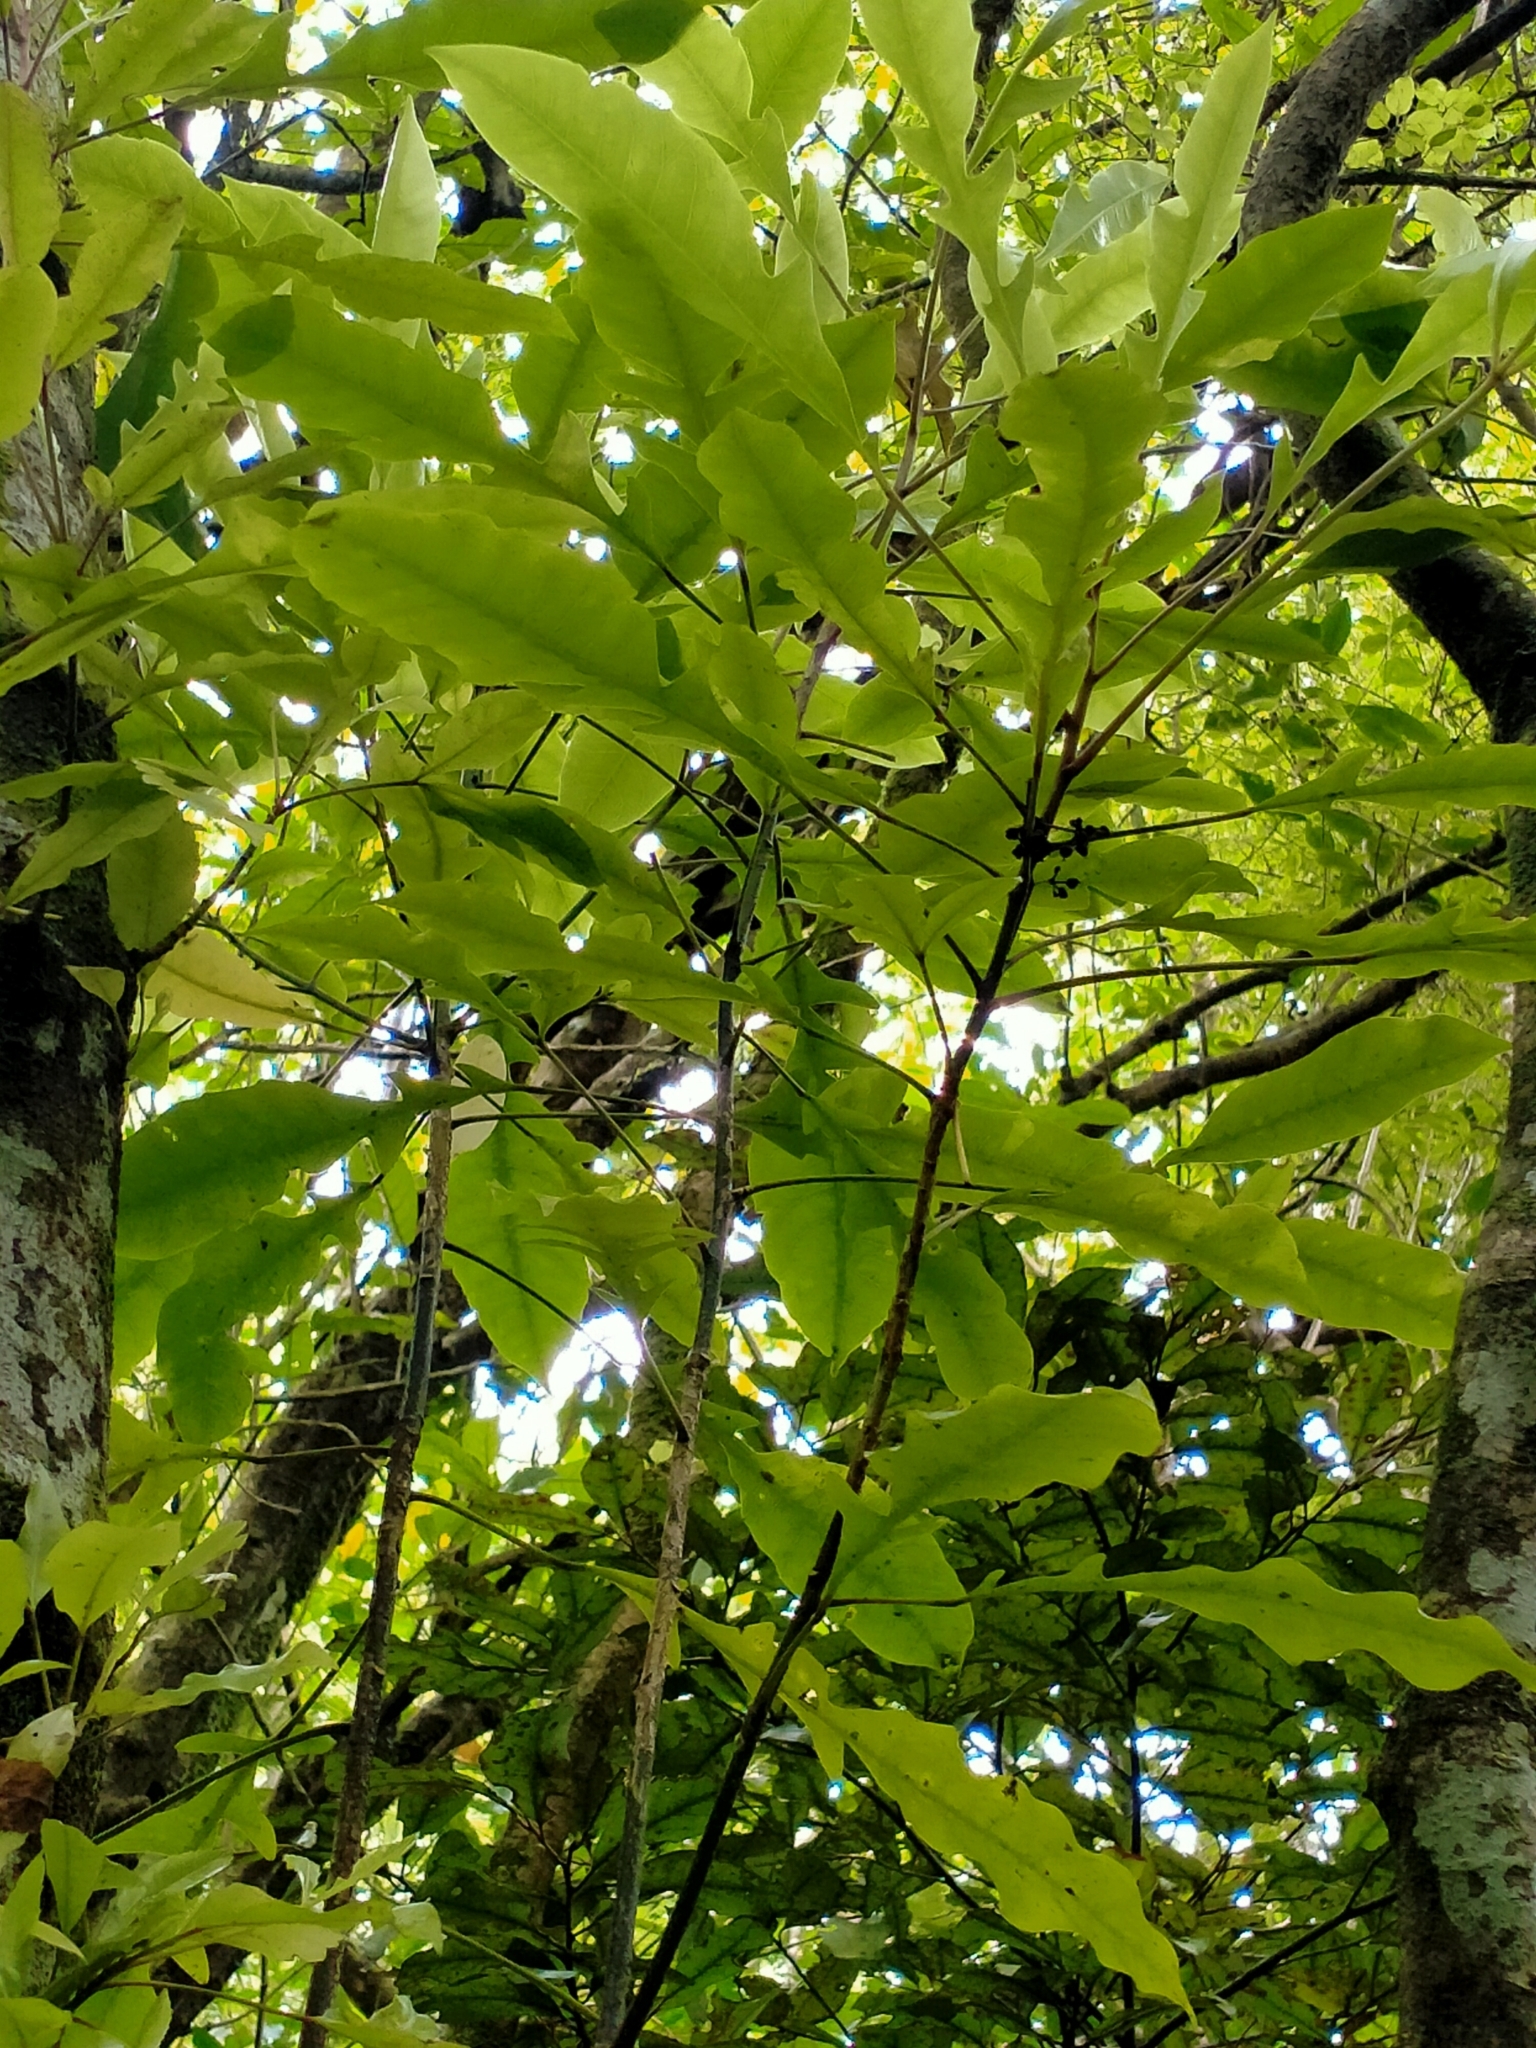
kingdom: Plantae
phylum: Tracheophyta
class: Magnoliopsida
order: Apiales
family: Araliaceae
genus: Raukaua
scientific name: Raukaua edgerleyi
